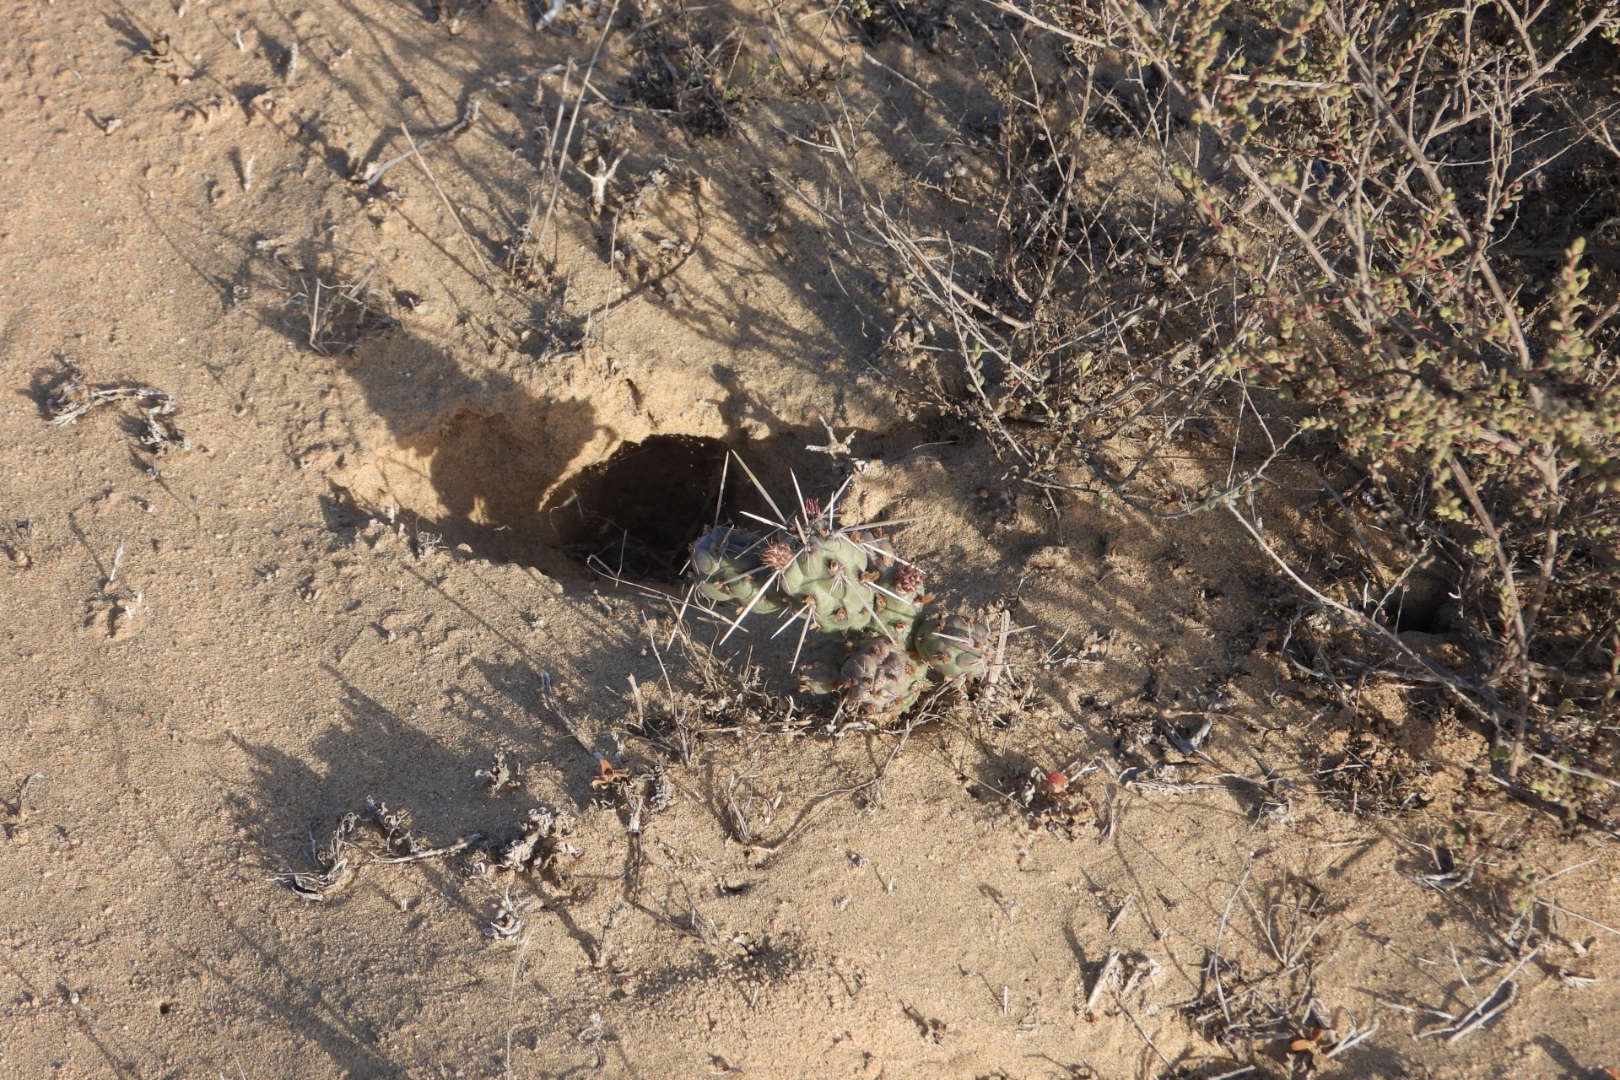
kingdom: Plantae
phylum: Tracheophyta
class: Magnoliopsida
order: Caryophyllales
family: Cactaceae
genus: Cylindropuntia
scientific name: Cylindropuntia cholla
